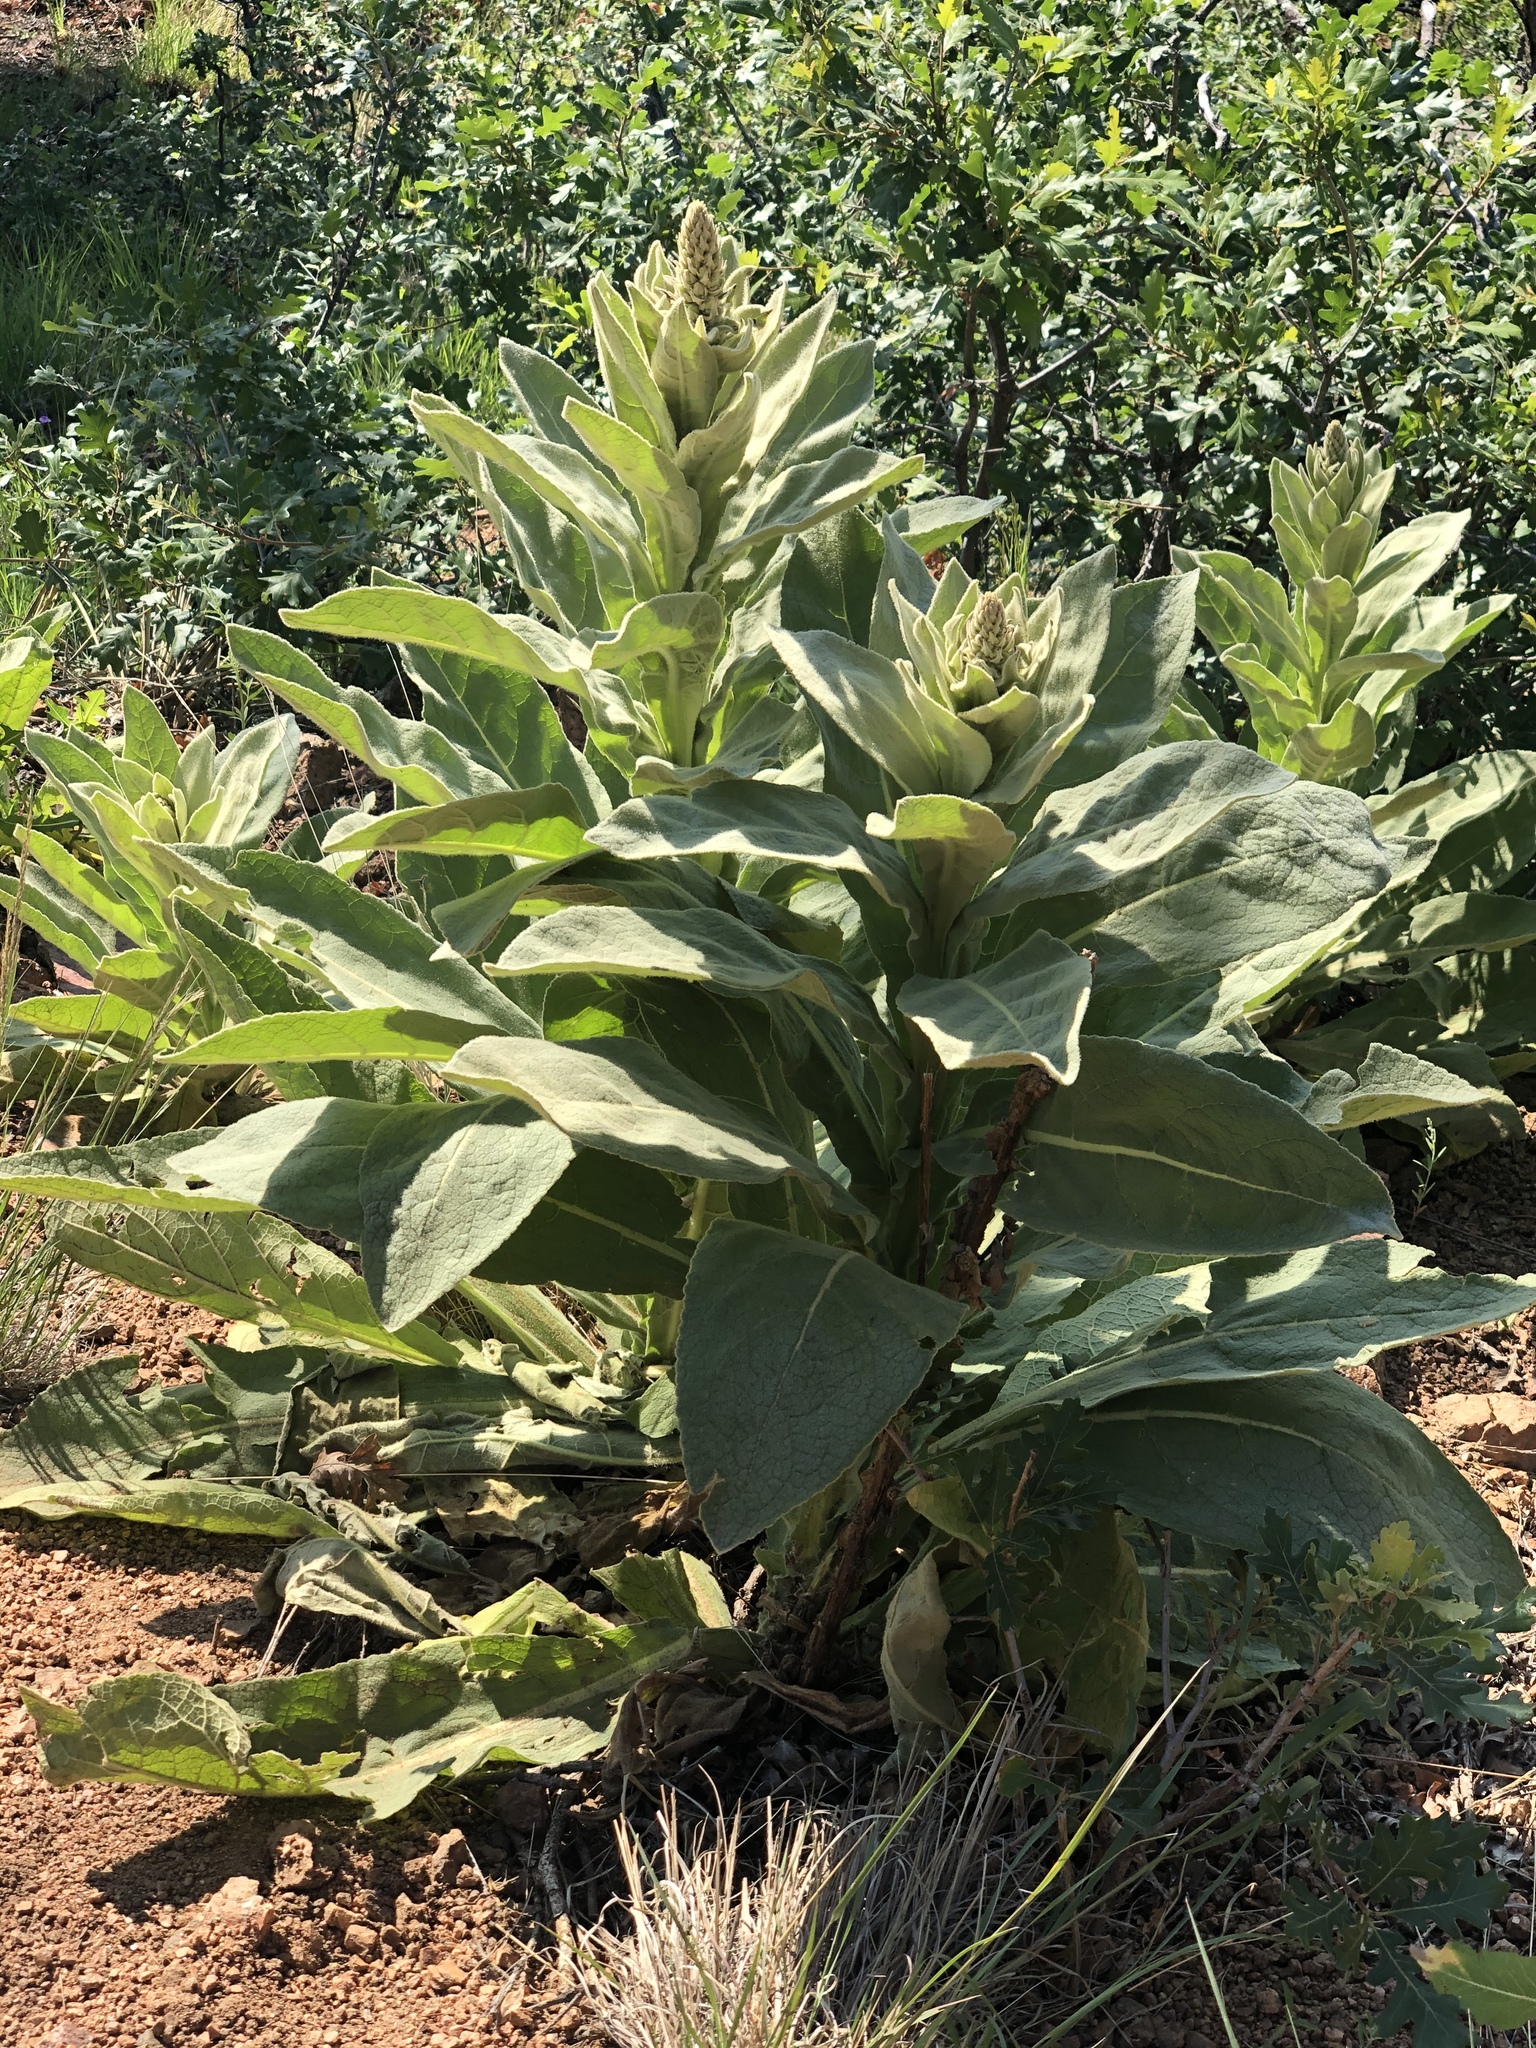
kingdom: Plantae
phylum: Tracheophyta
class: Magnoliopsida
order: Lamiales
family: Scrophulariaceae
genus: Verbascum
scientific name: Verbascum thapsus
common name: Common mullein
